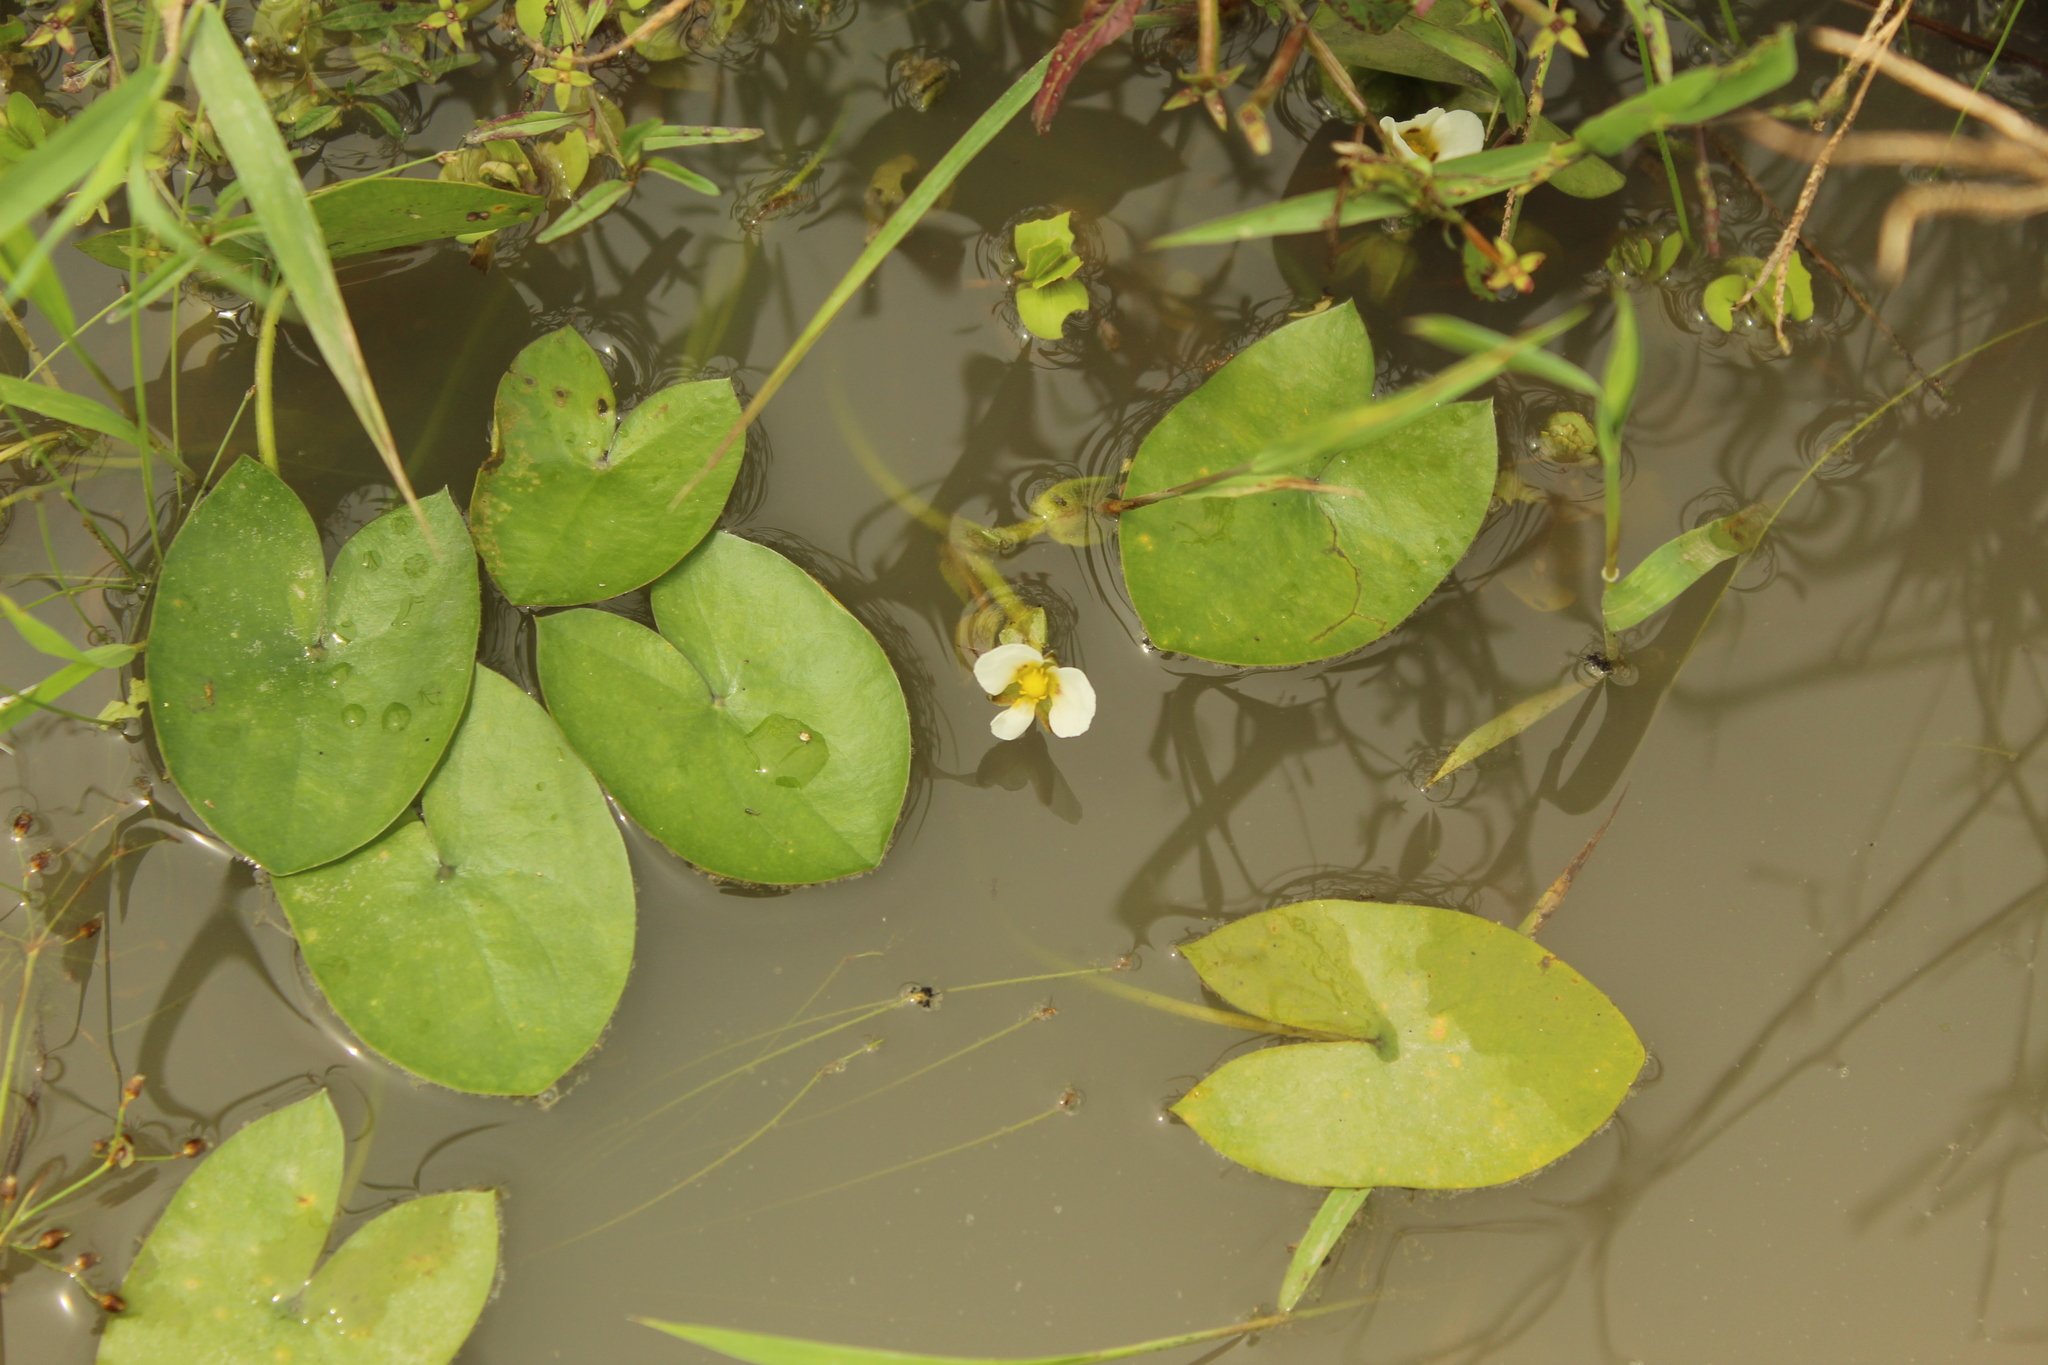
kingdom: Plantae
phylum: Tracheophyta
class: Liliopsida
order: Alismatales
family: Alismataceae
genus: Sagittaria
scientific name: Sagittaria guayanensis
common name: Guyanese arrowhead
